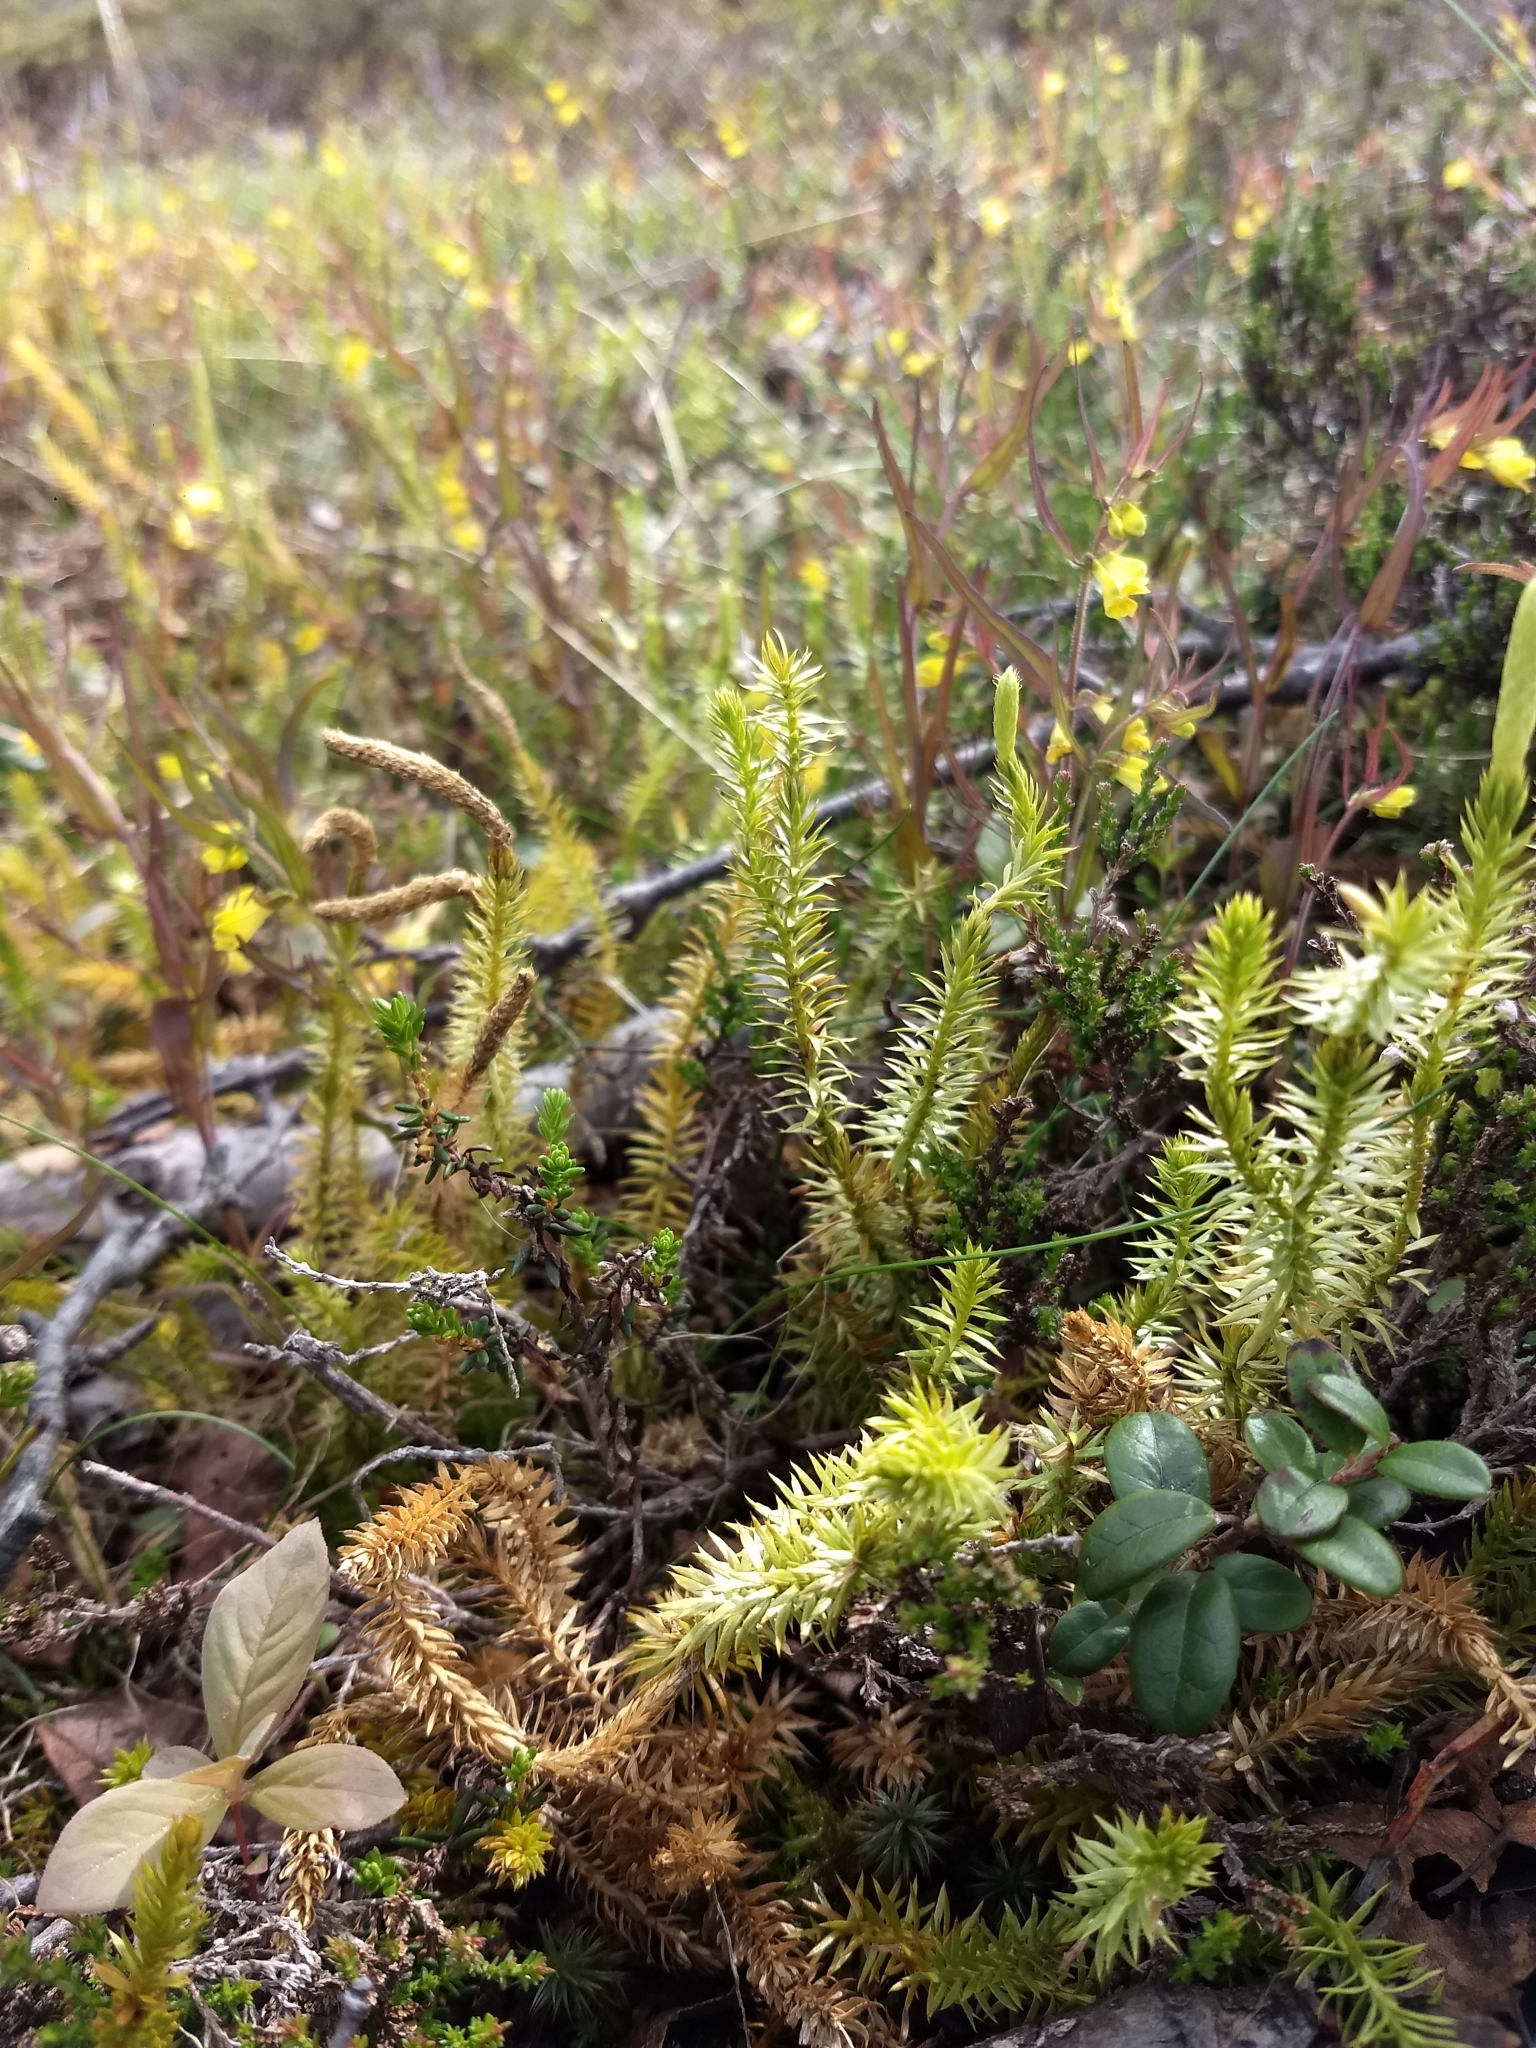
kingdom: Plantae
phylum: Tracheophyta
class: Lycopodiopsida
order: Lycopodiales
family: Lycopodiaceae
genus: Spinulum
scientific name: Spinulum annotinum
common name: Interrupted club-moss
